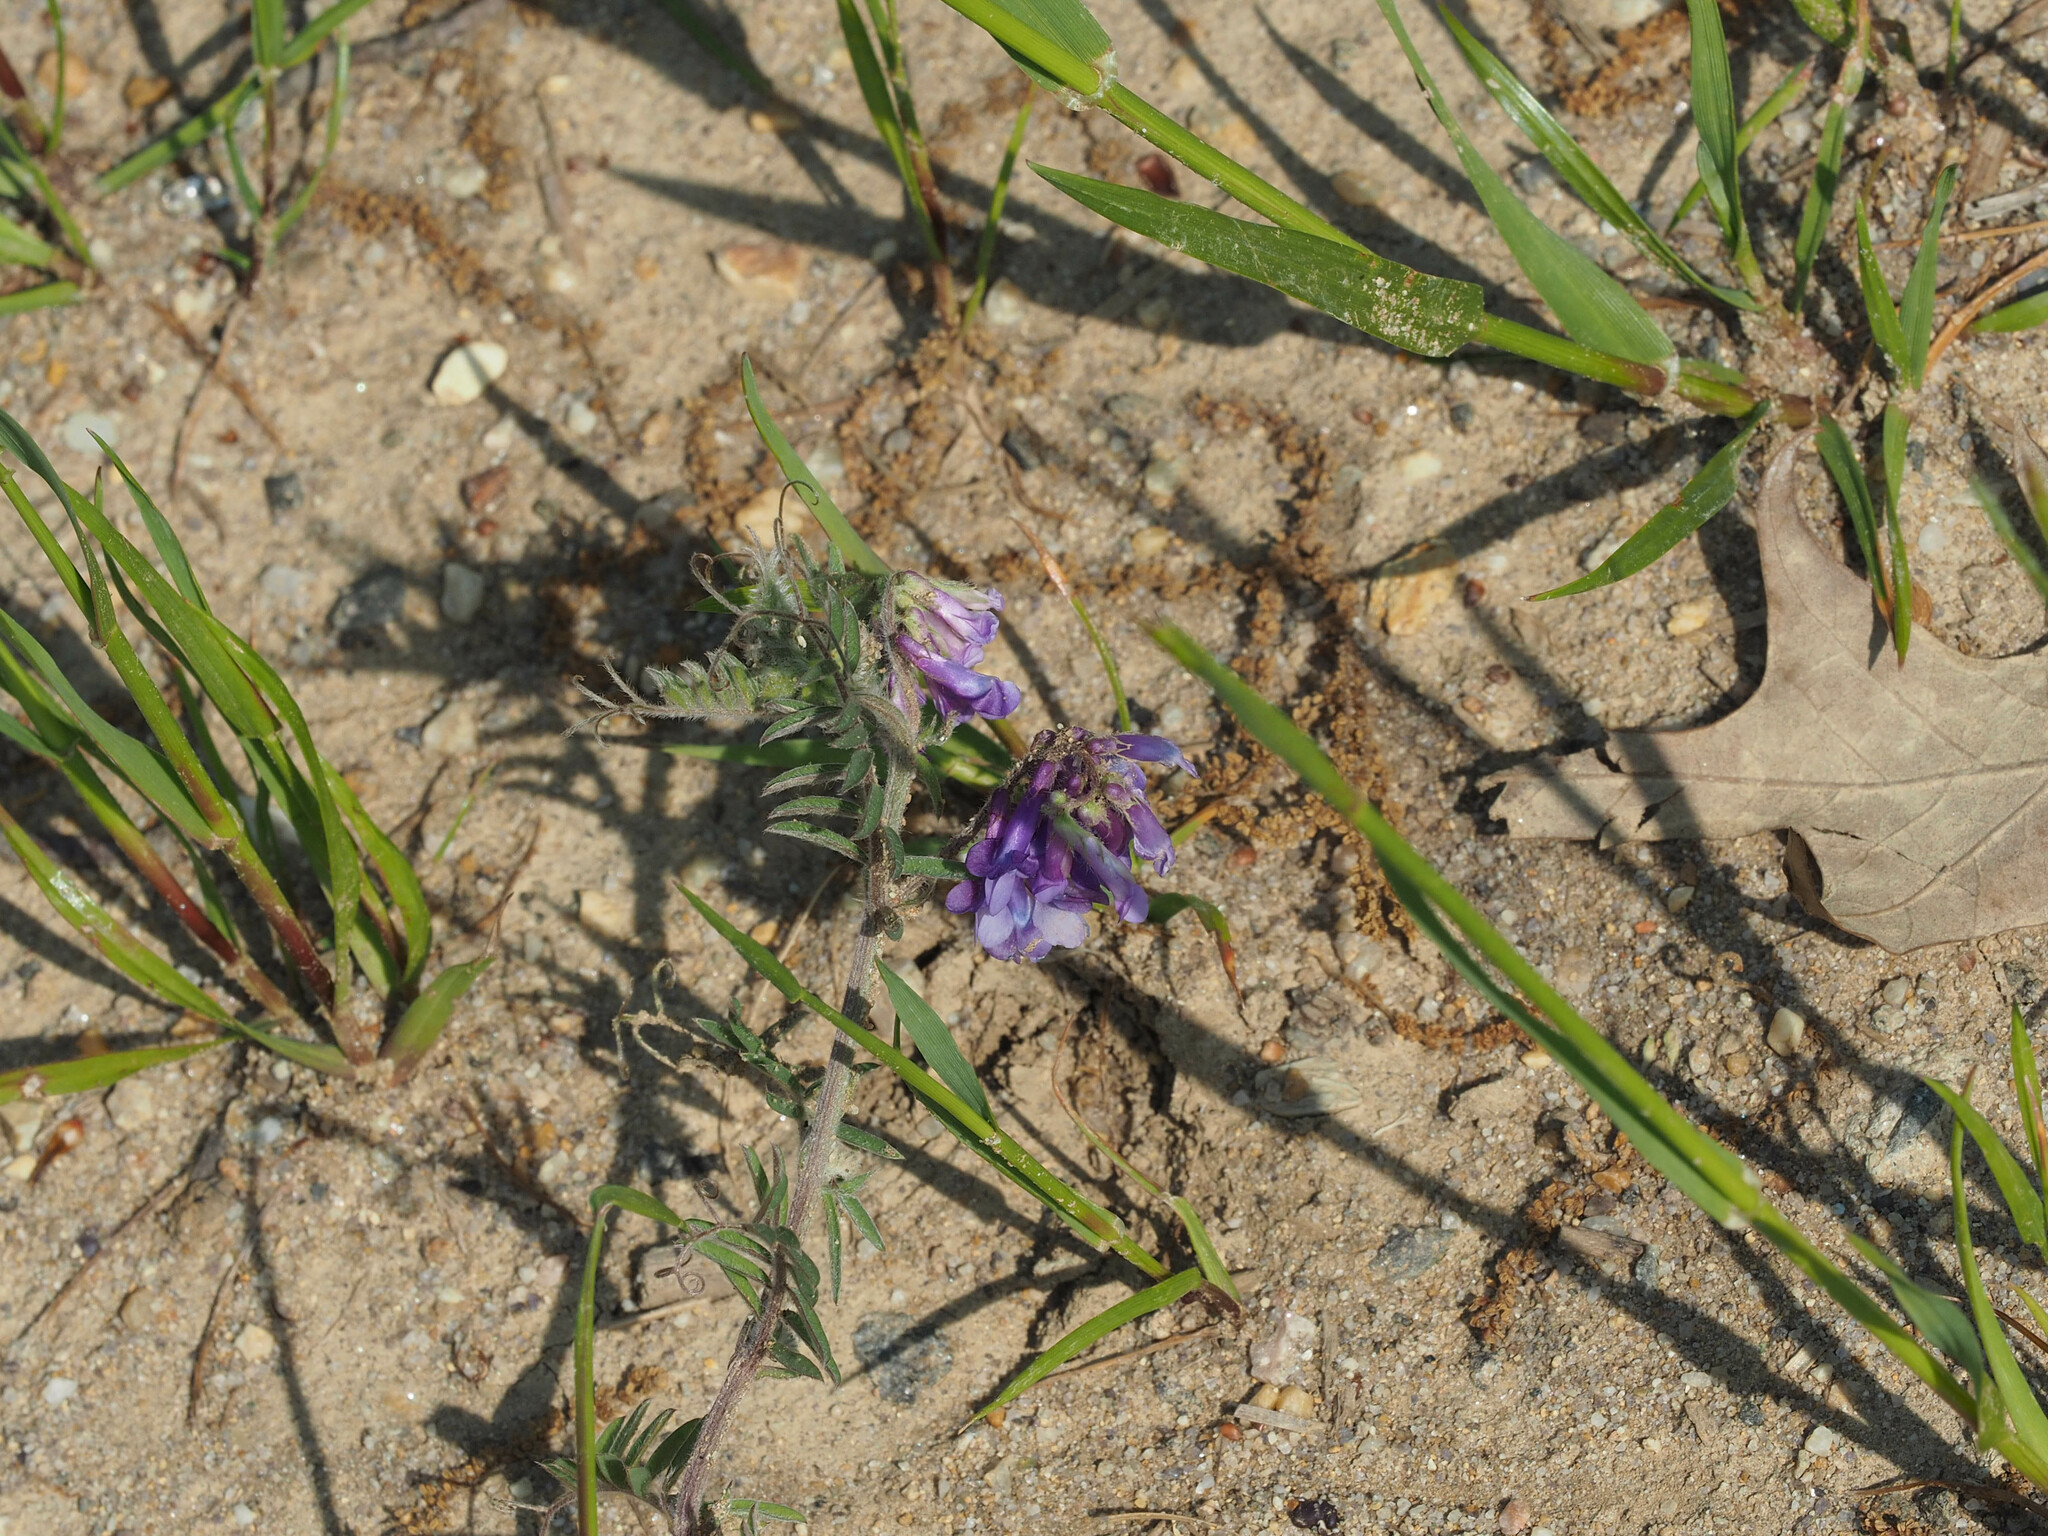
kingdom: Plantae
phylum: Tracheophyta
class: Magnoliopsida
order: Fabales
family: Fabaceae
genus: Vicia
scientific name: Vicia villosa
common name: Fodder vetch
